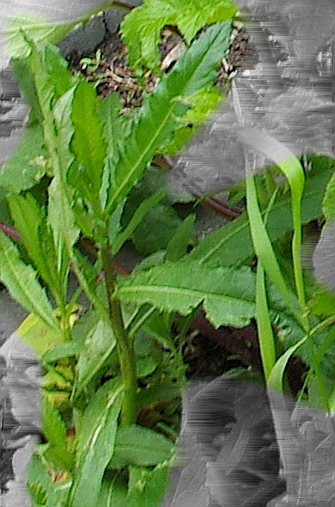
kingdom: Plantae
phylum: Tracheophyta
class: Magnoliopsida
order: Asterales
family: Asteraceae
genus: Cirsium
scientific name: Cirsium arvense
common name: Creeping thistle
